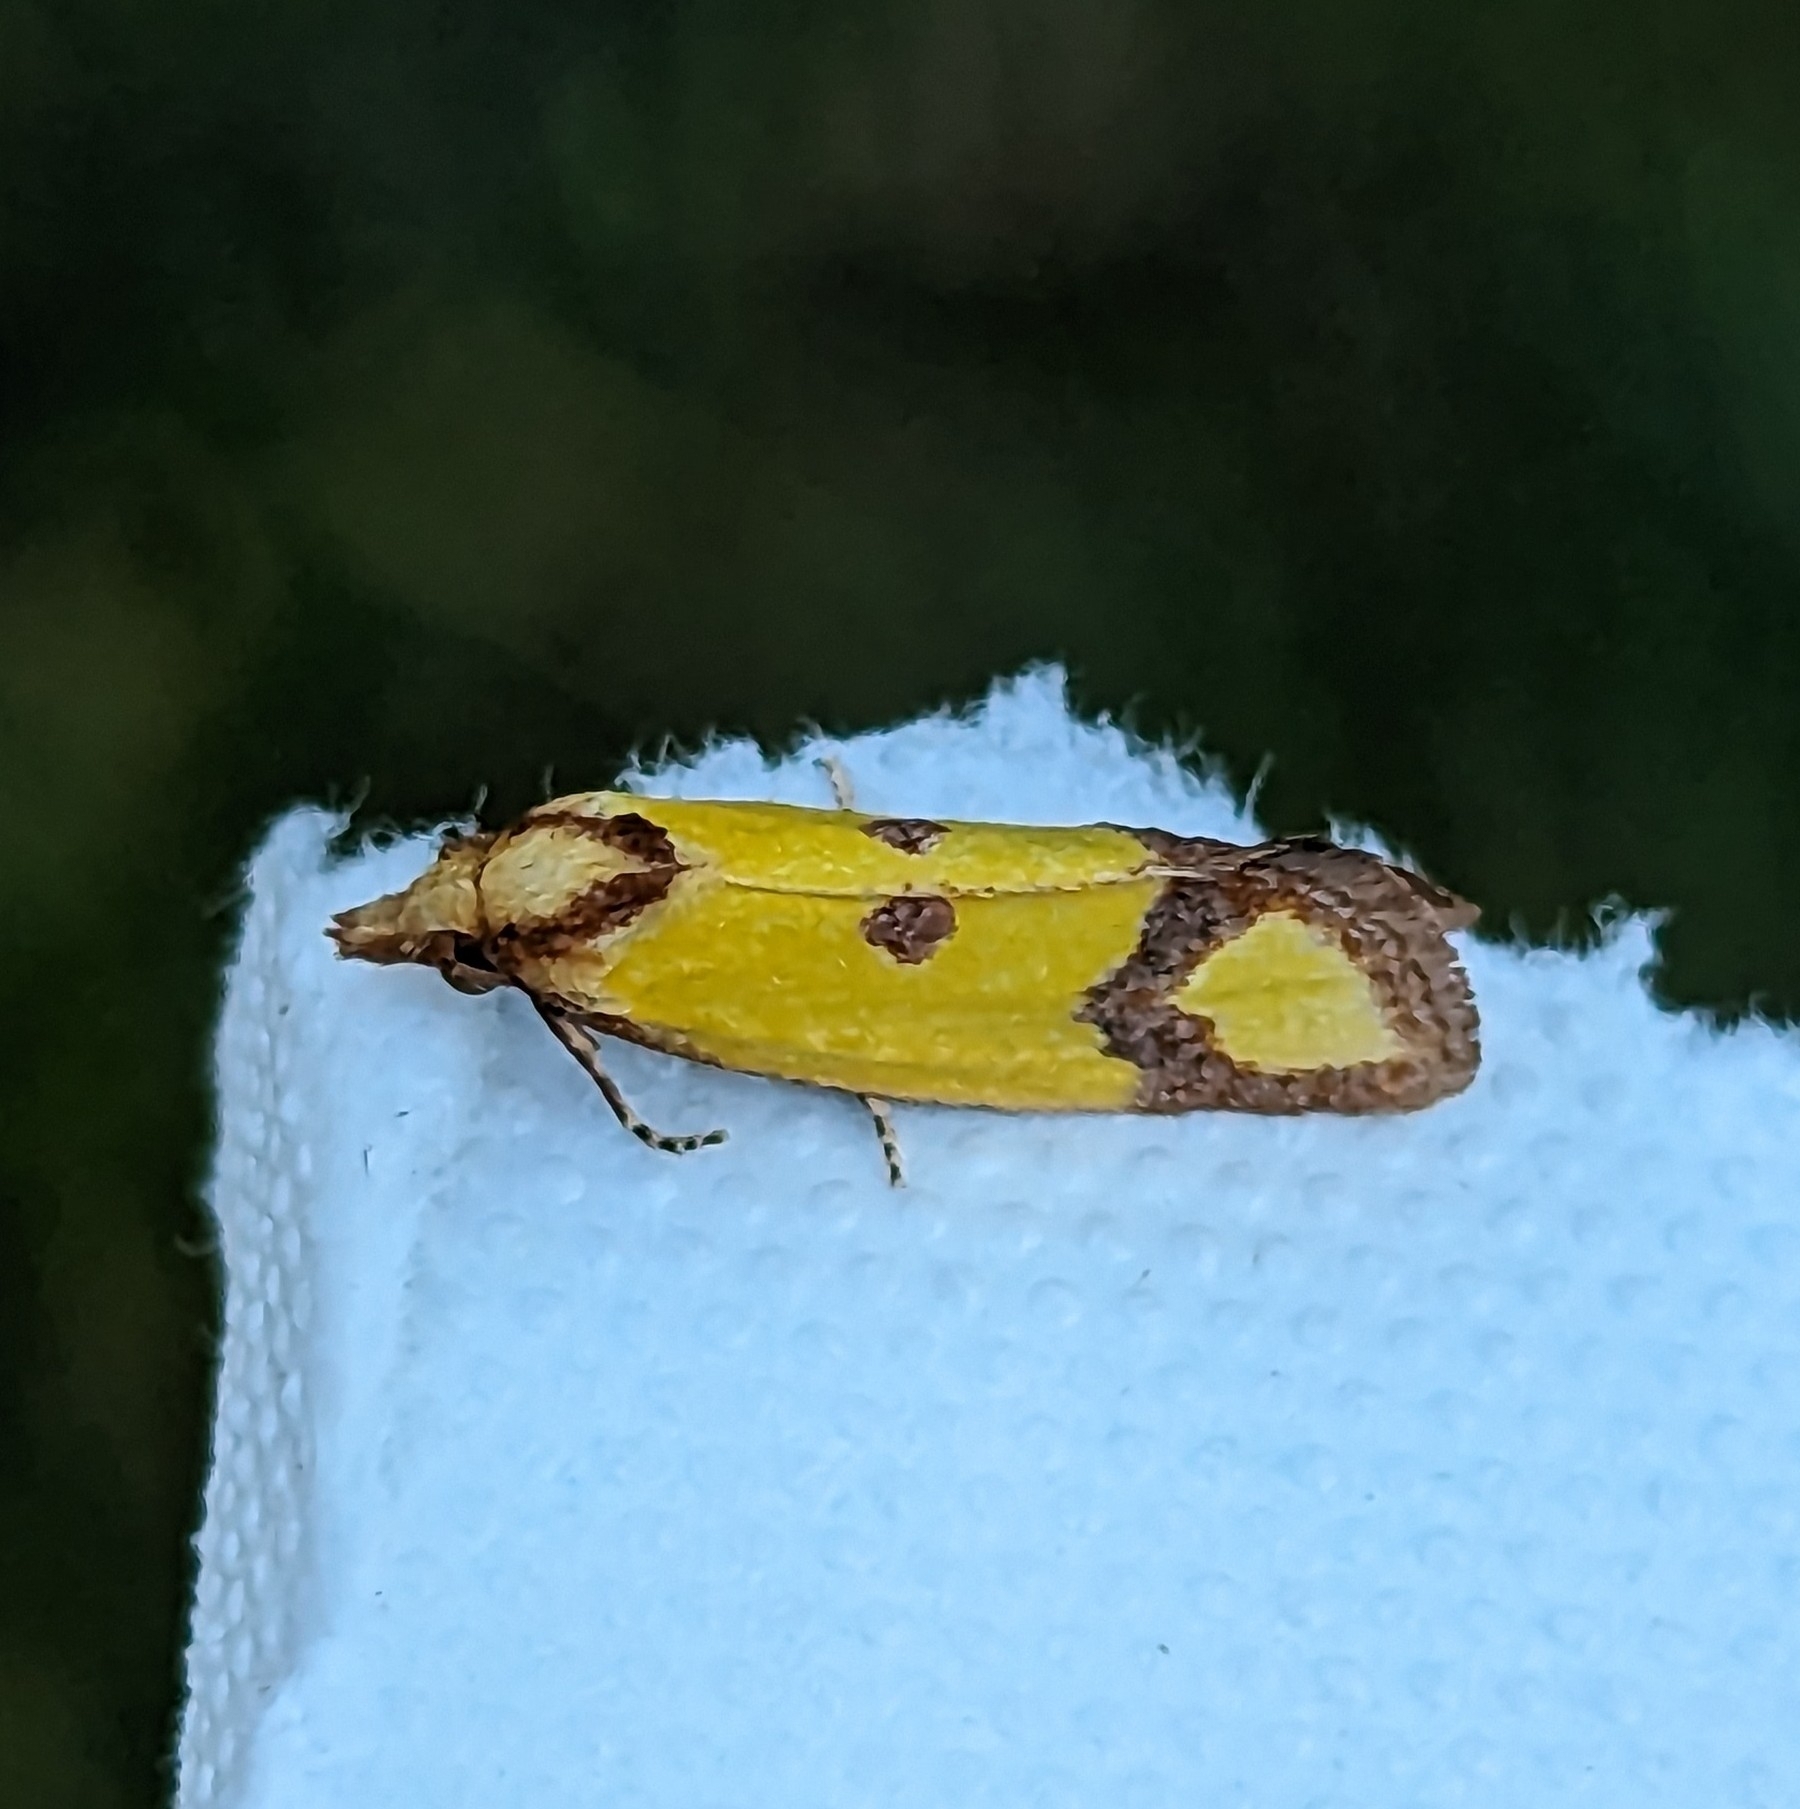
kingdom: Animalia
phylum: Arthropoda
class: Insecta
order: Lepidoptera
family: Tortricidae
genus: Agapeta
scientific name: Agapeta zoegana
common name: Sulfur knapweed root moth
